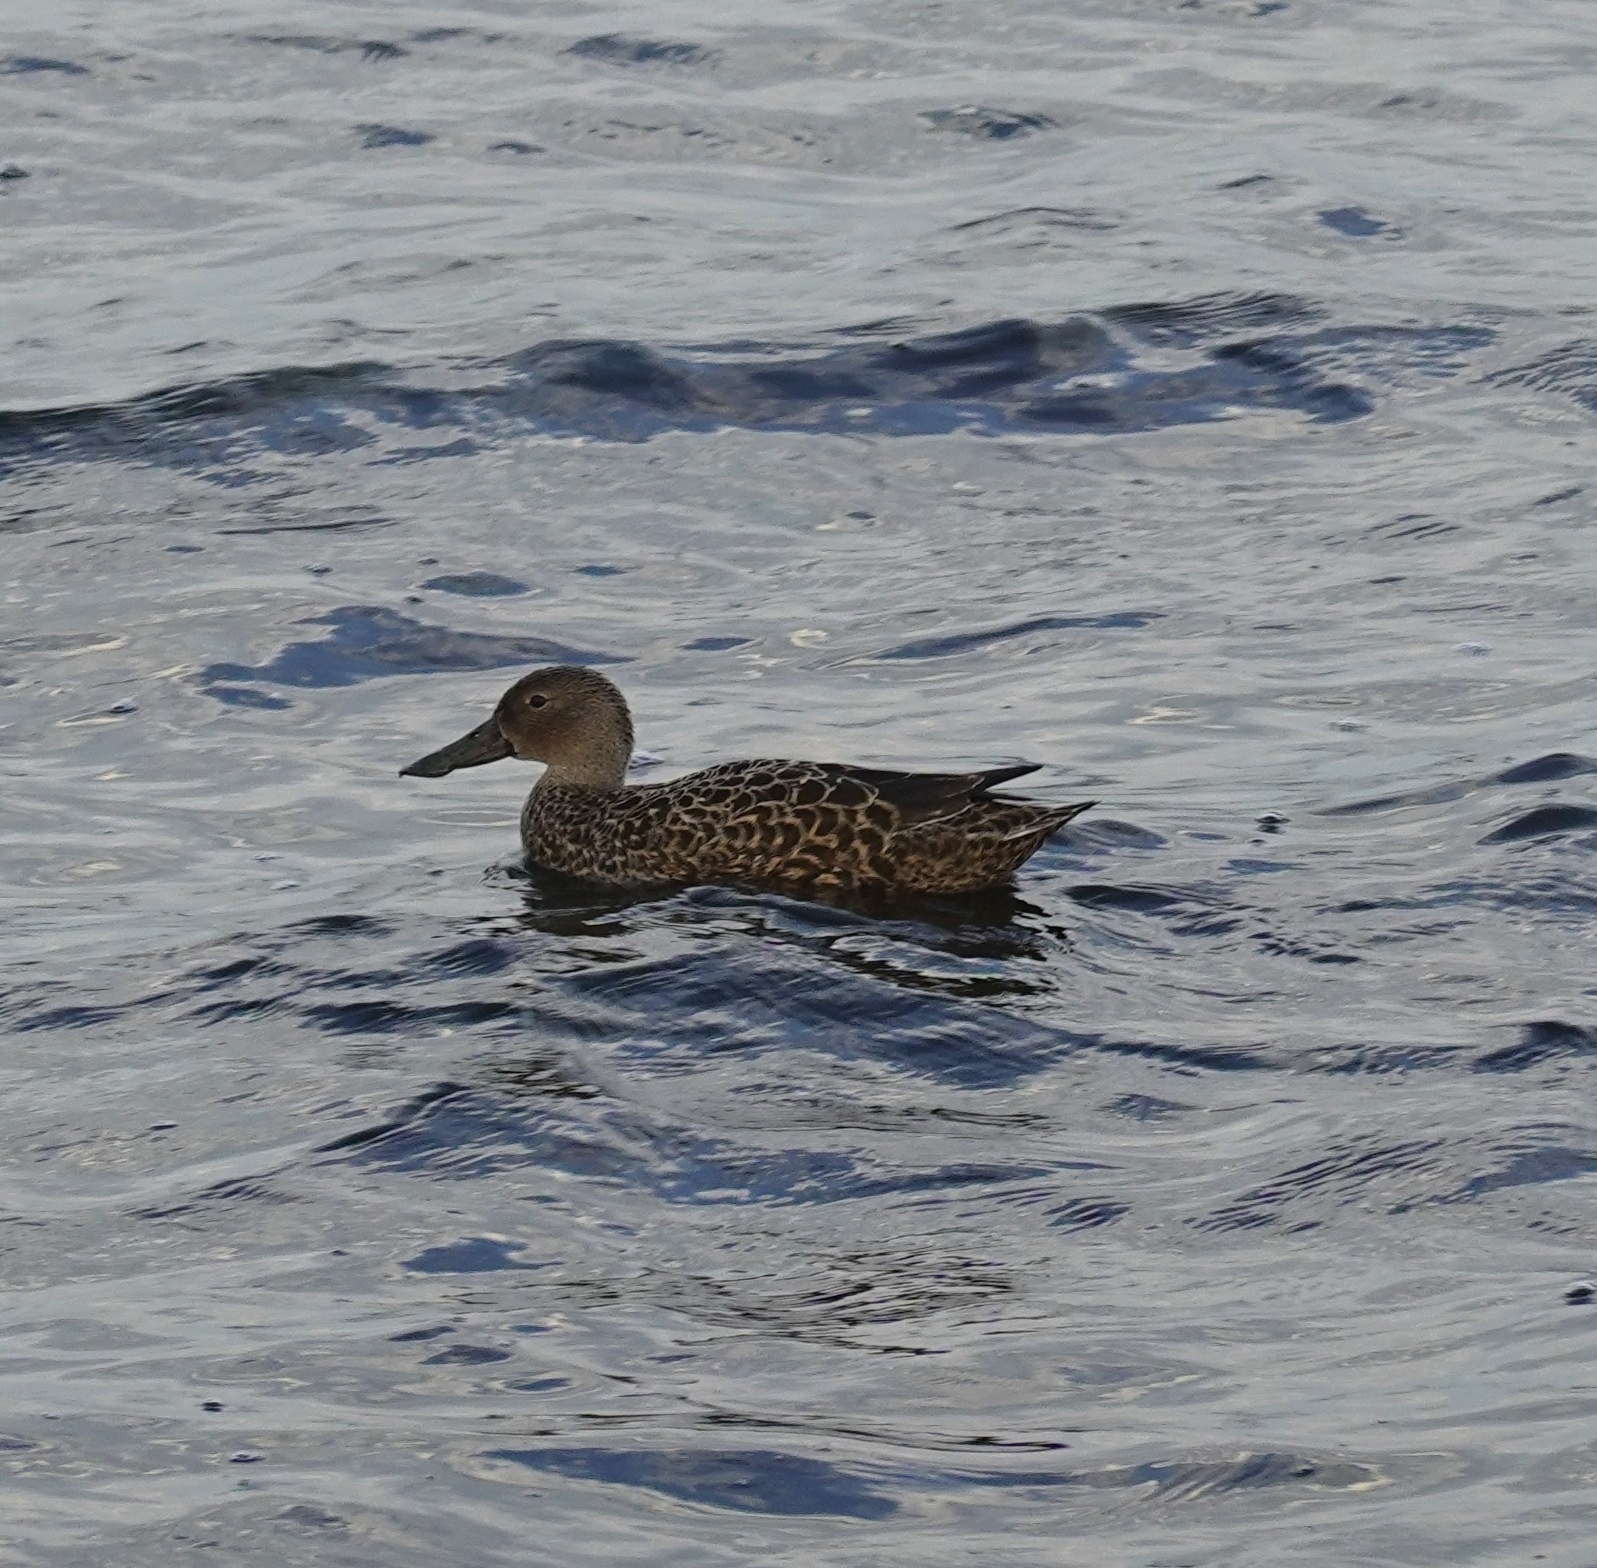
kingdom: Animalia
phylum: Chordata
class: Aves
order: Anseriformes
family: Anatidae
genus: Spatula
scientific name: Spatula smithii
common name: Cape shoveler
